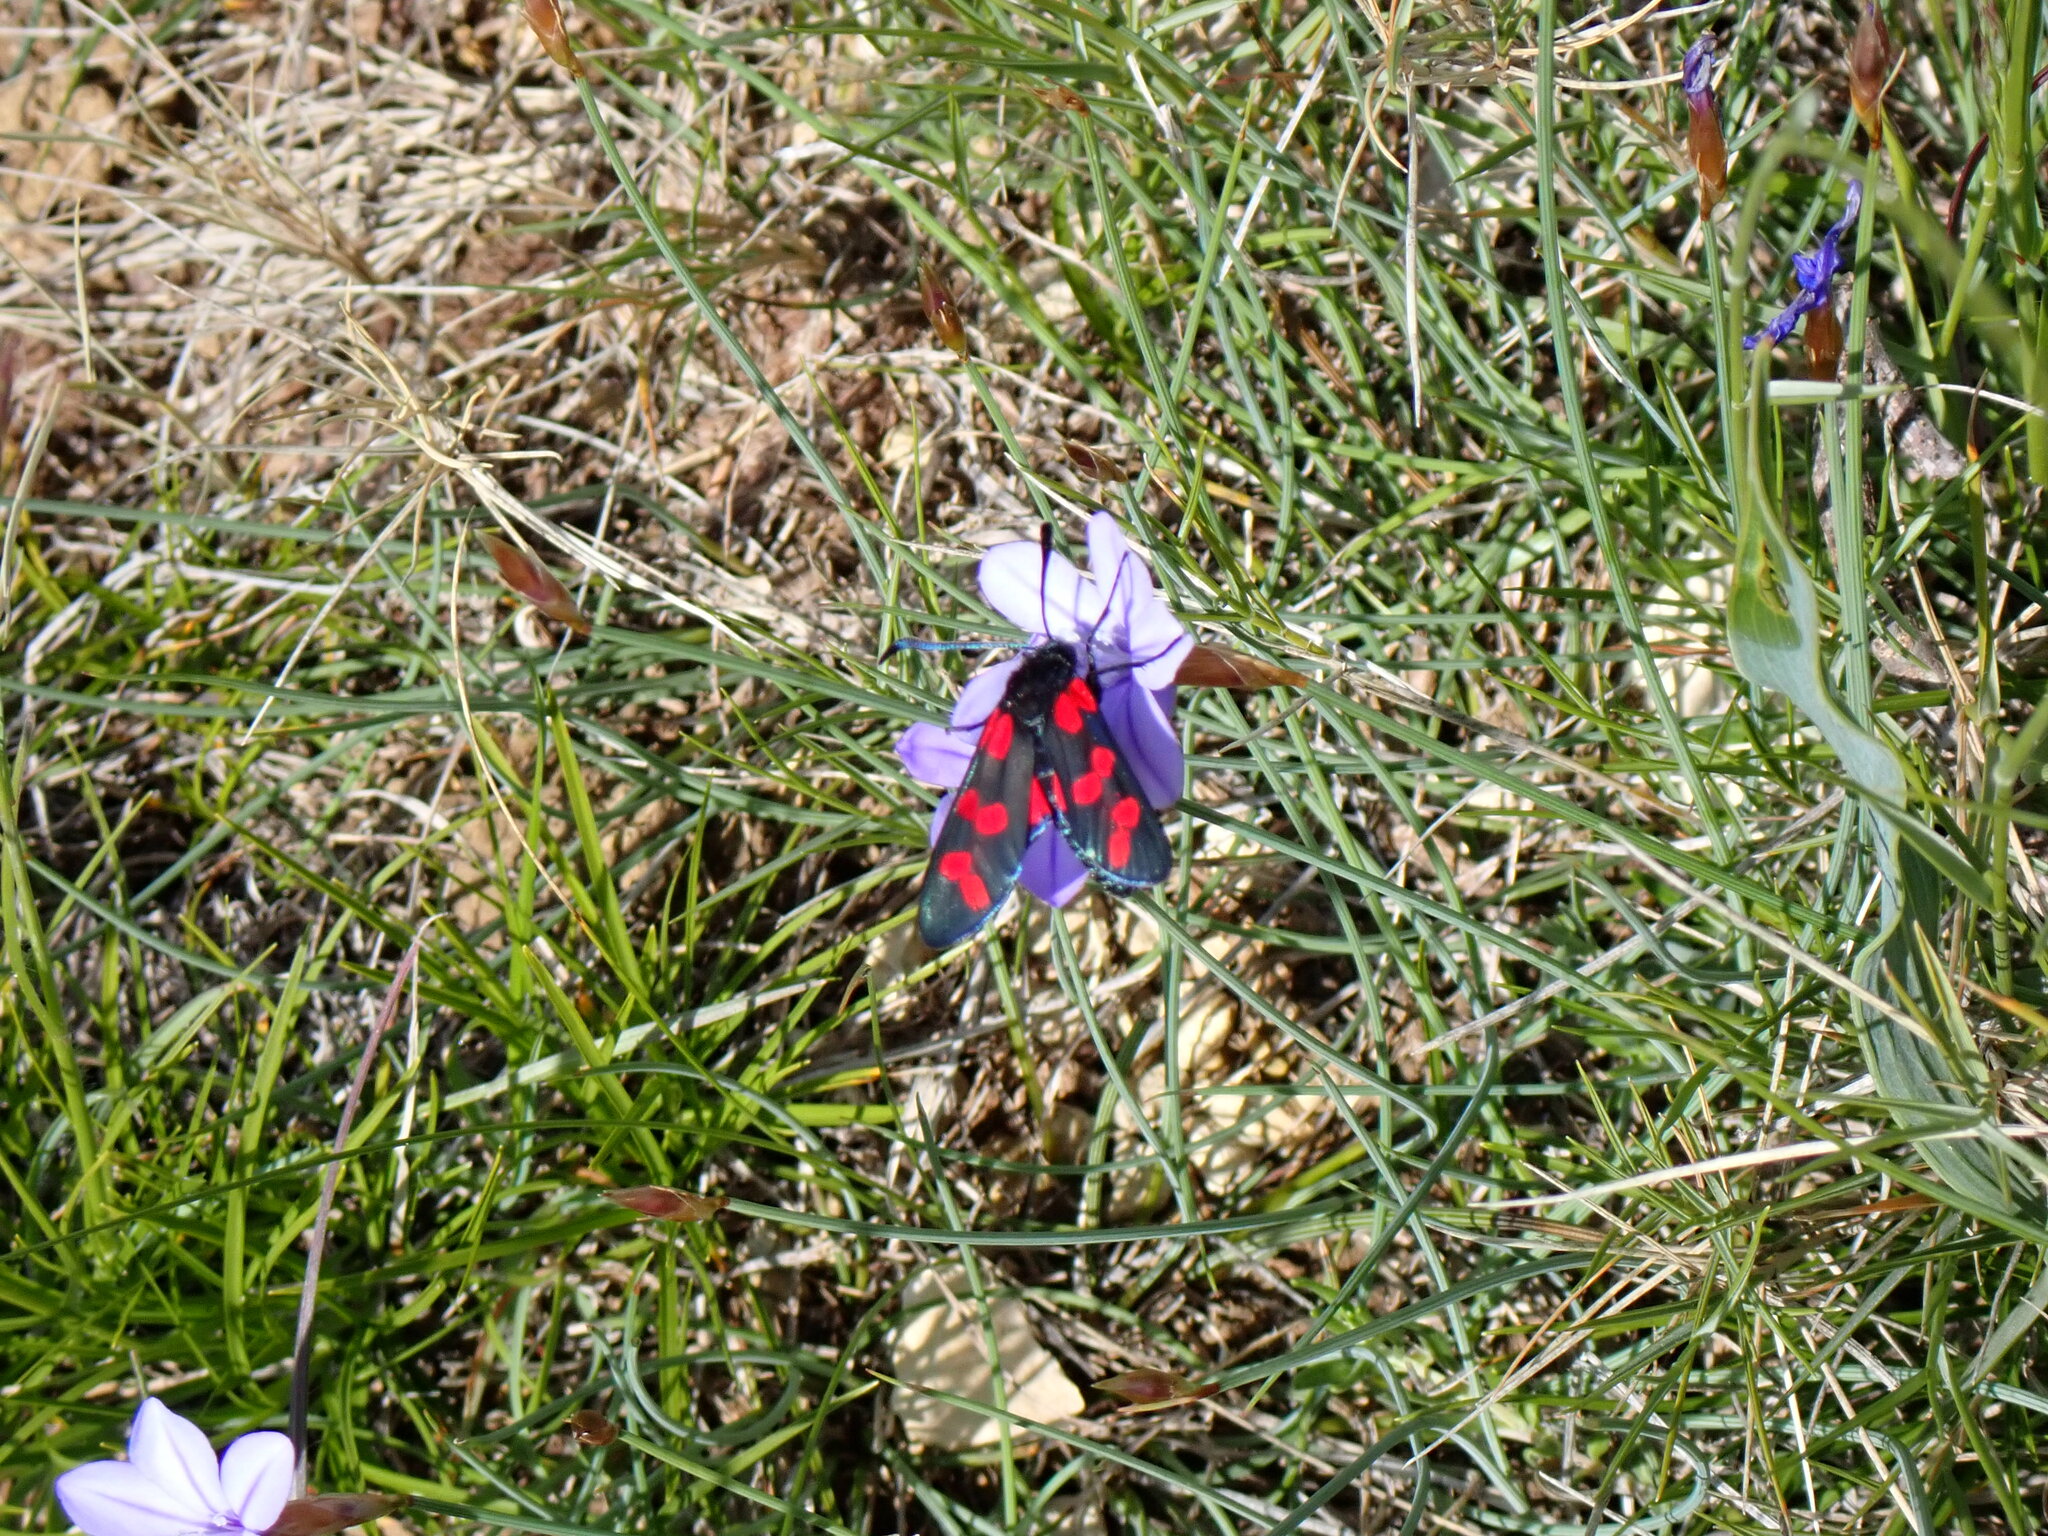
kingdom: Animalia
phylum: Arthropoda
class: Insecta
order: Lepidoptera
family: Zygaenidae
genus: Zygaena
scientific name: Zygaena transalpina
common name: Southern six spot burnet
